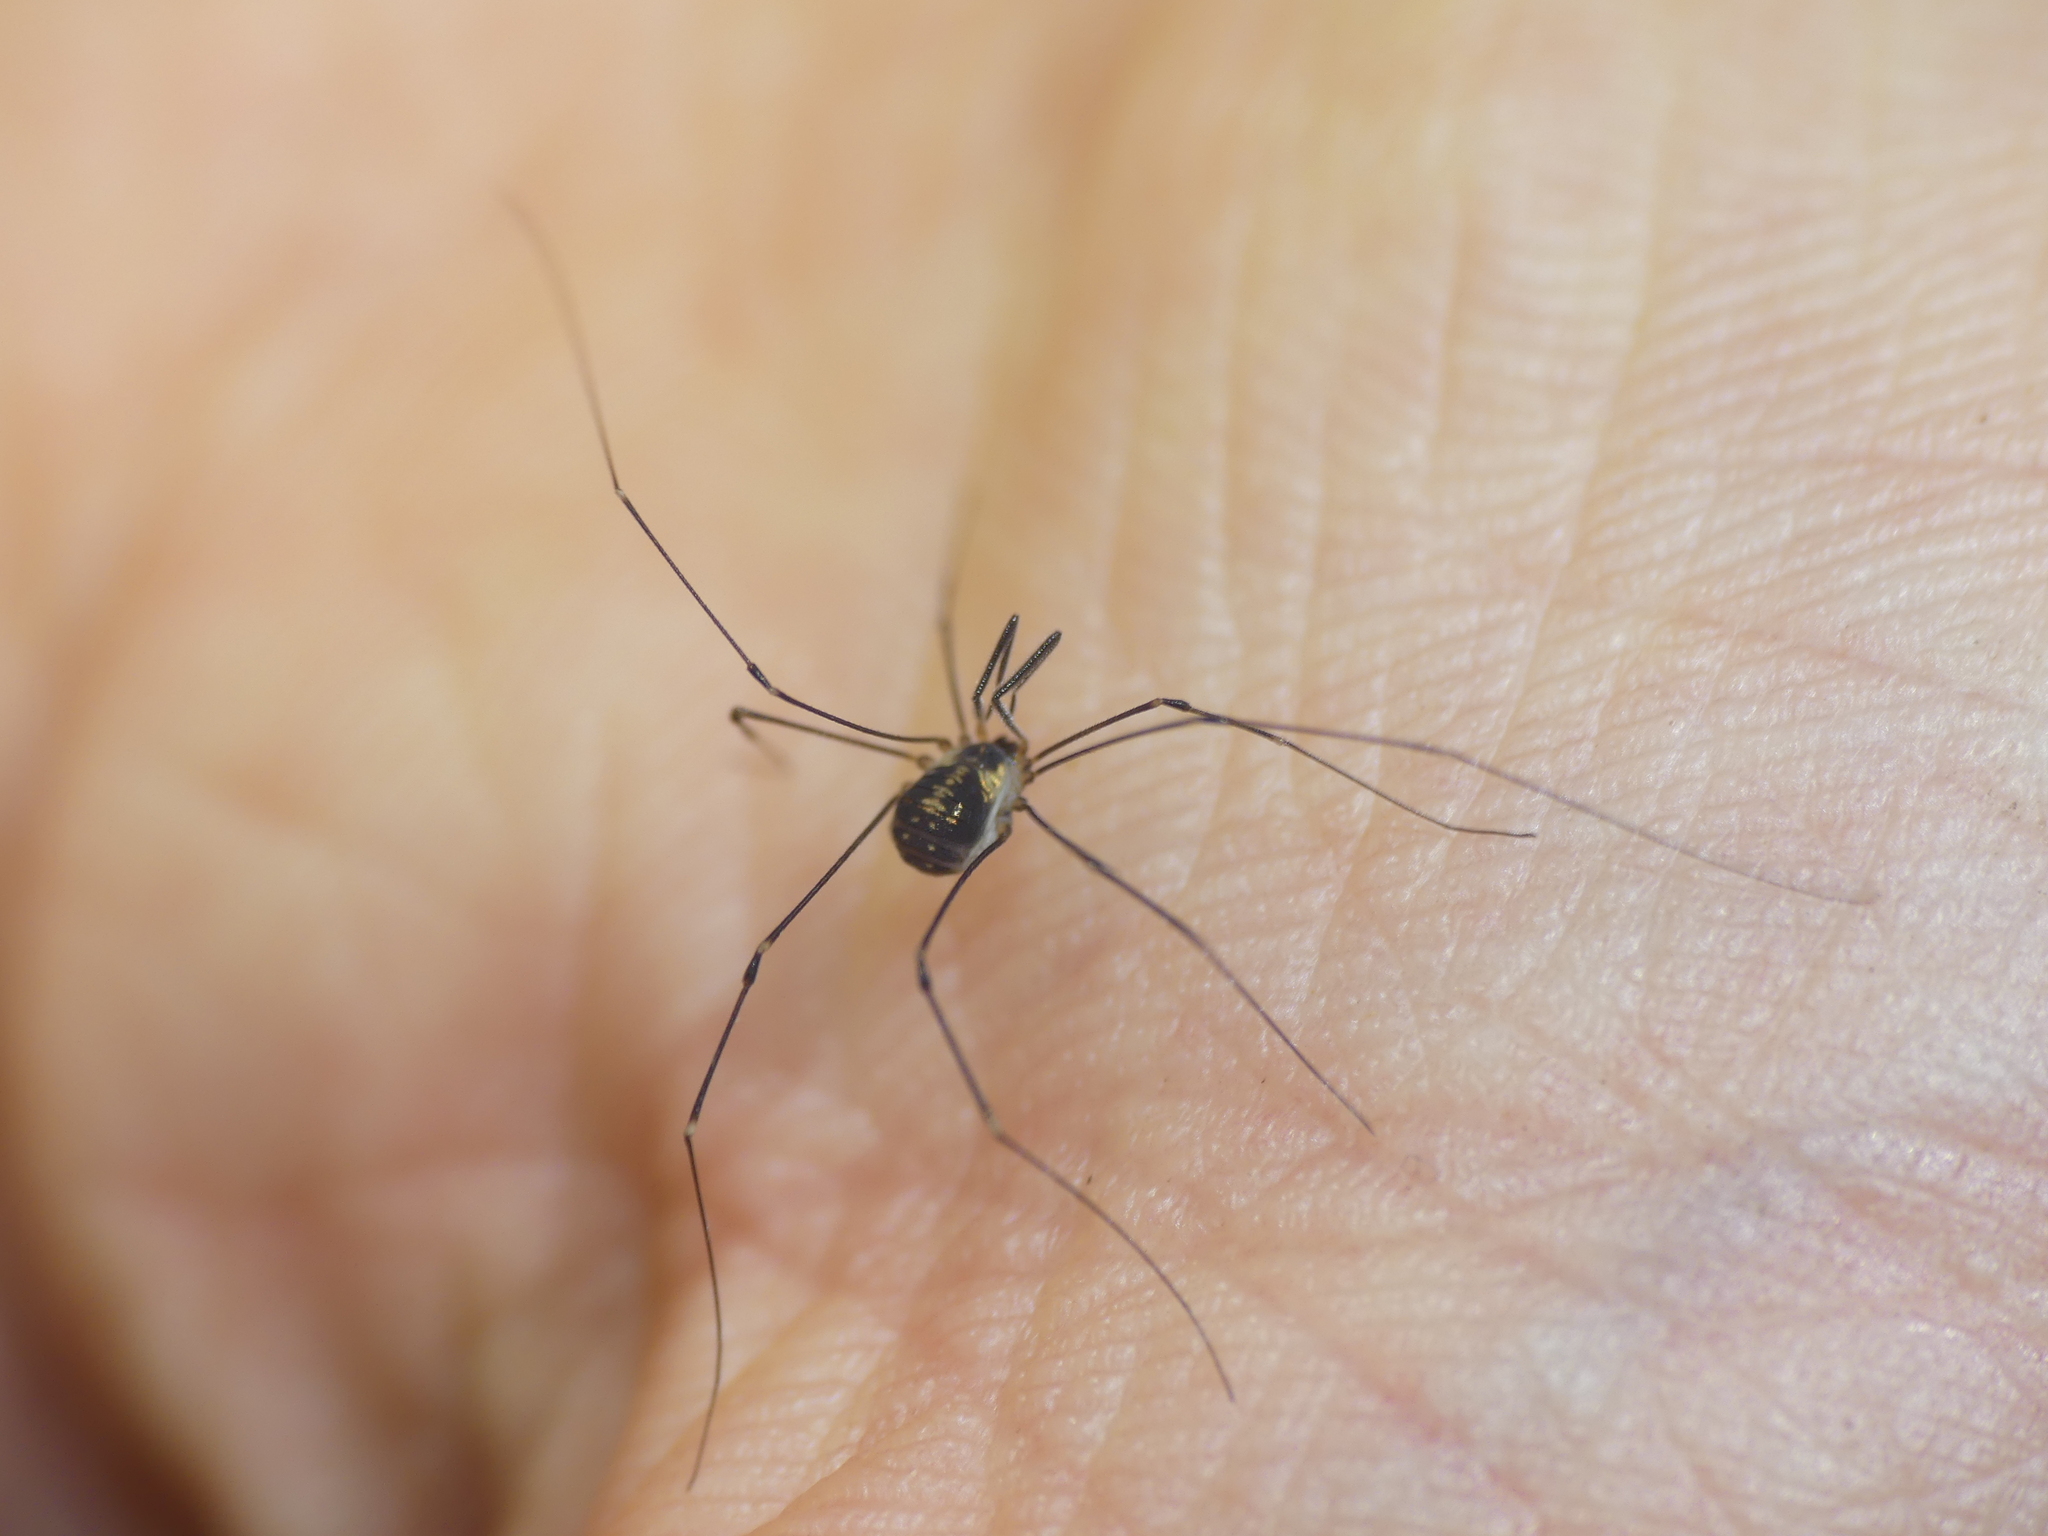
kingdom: Animalia
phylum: Arthropoda
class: Arachnida
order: Opiliones
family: Nemastomatidae
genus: Mitostoma
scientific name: Mitostoma chrysomelas
